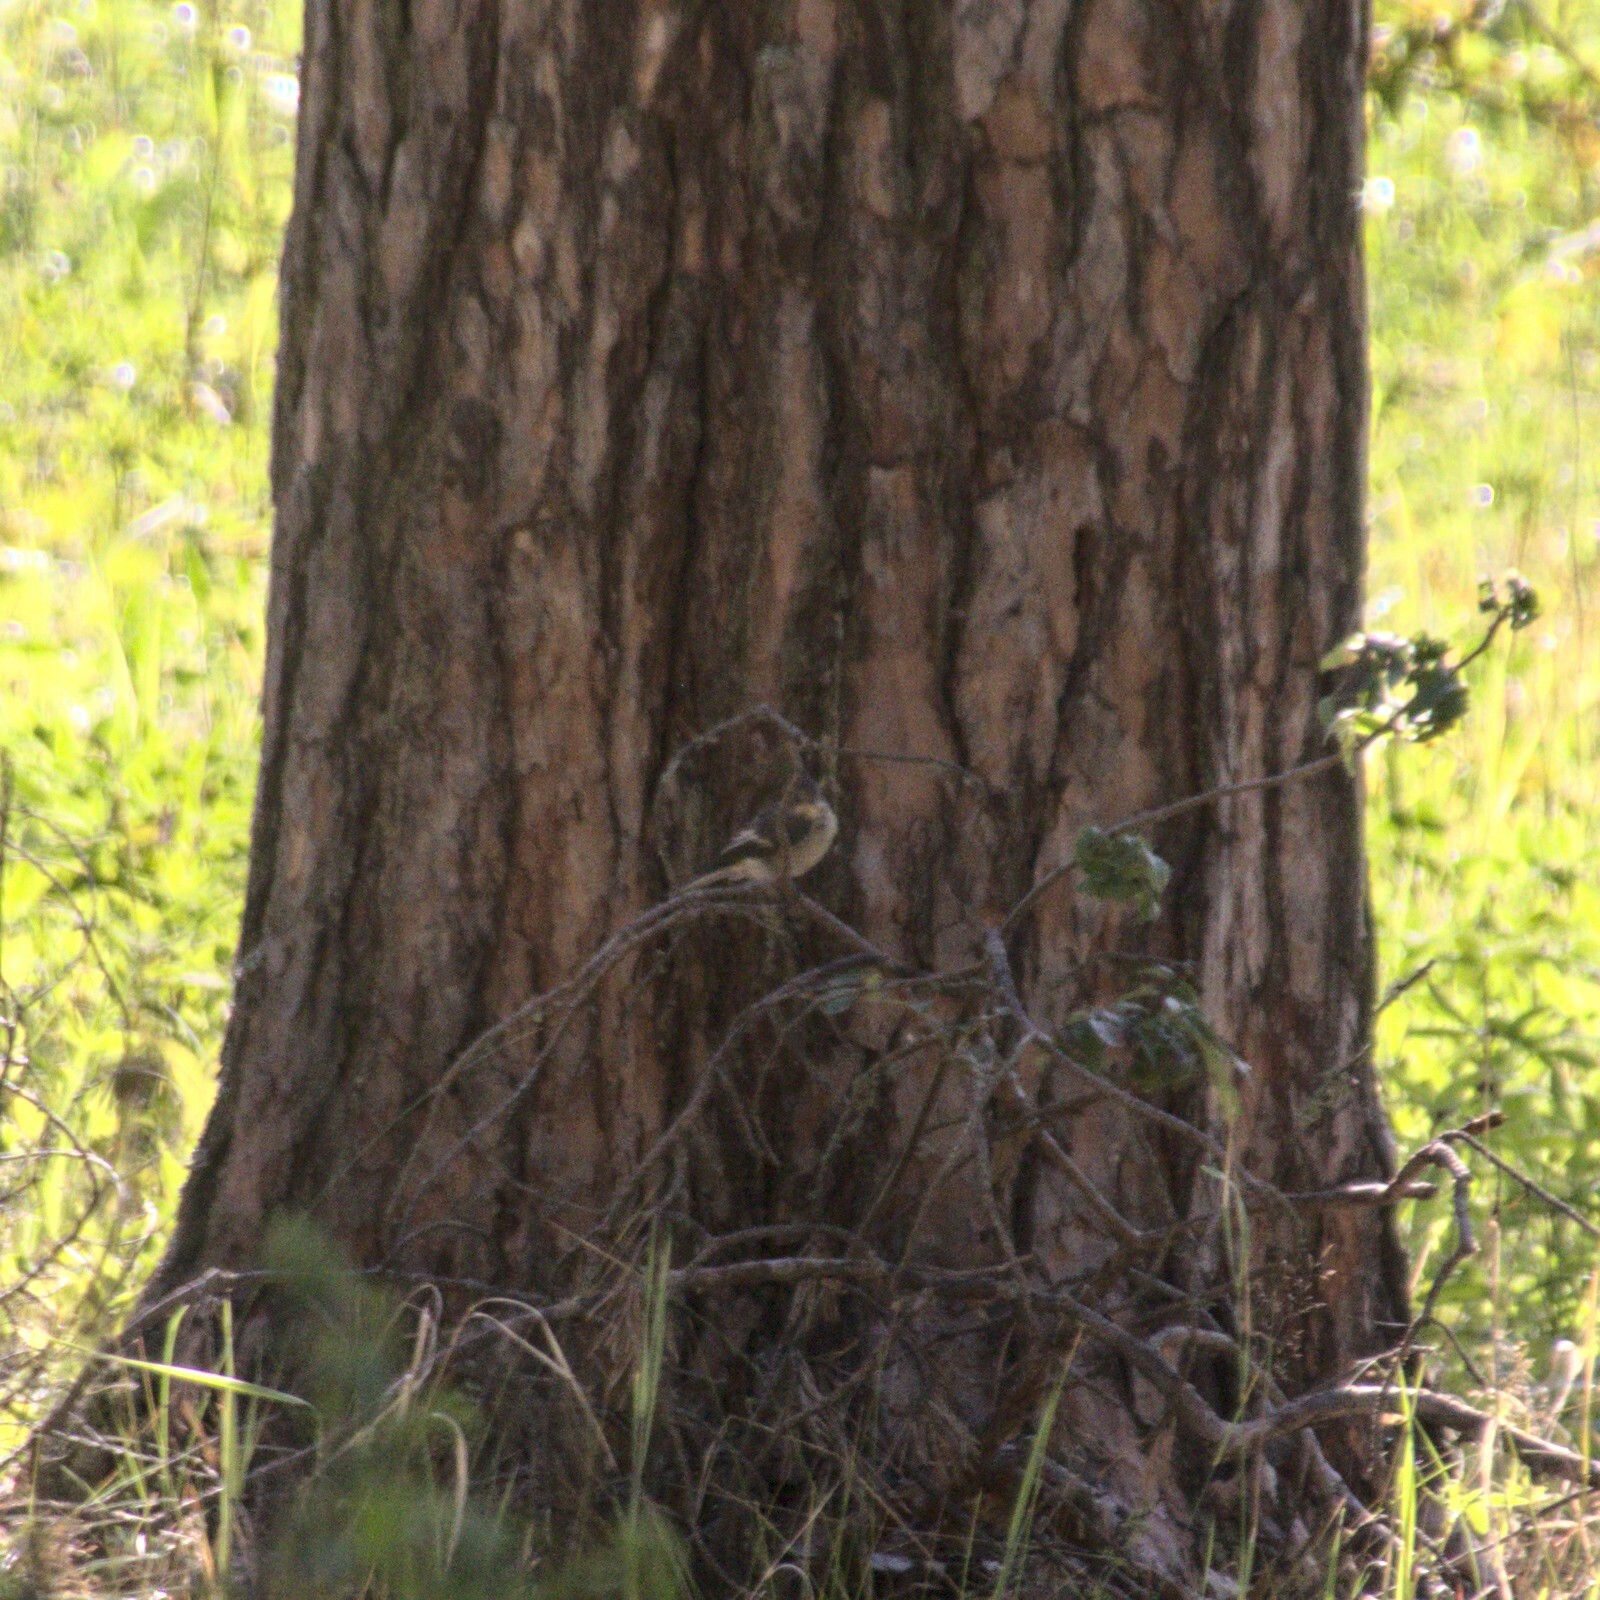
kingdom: Animalia
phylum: Chordata
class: Aves
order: Passeriformes
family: Muscicapidae
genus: Ficedula
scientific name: Ficedula hypoleuca
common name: European pied flycatcher
